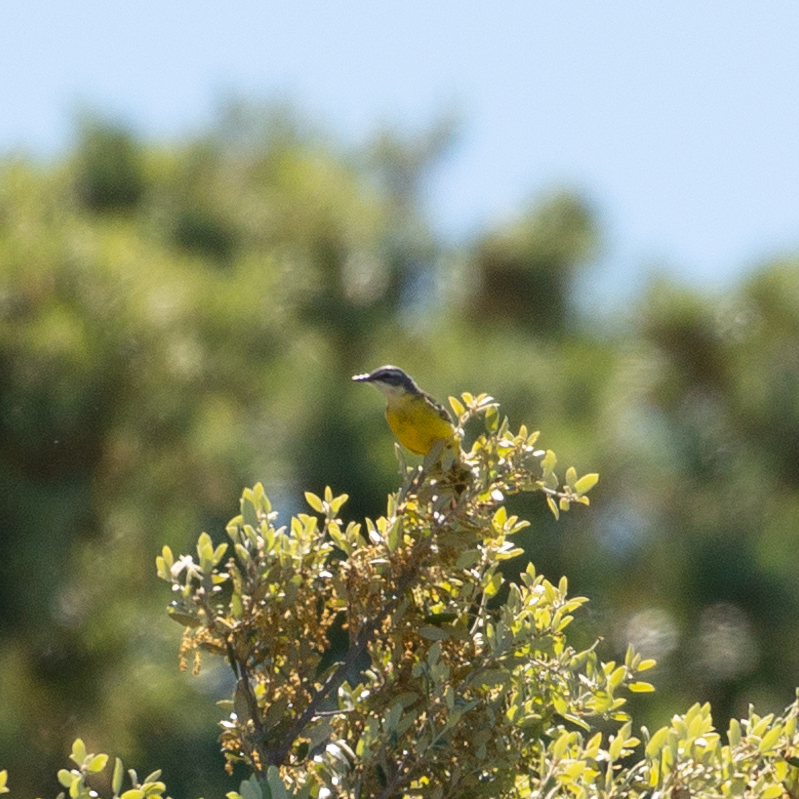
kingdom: Animalia
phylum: Chordata
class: Aves
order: Passeriformes
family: Motacillidae
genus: Motacilla
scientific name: Motacilla flava
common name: Western yellow wagtail
